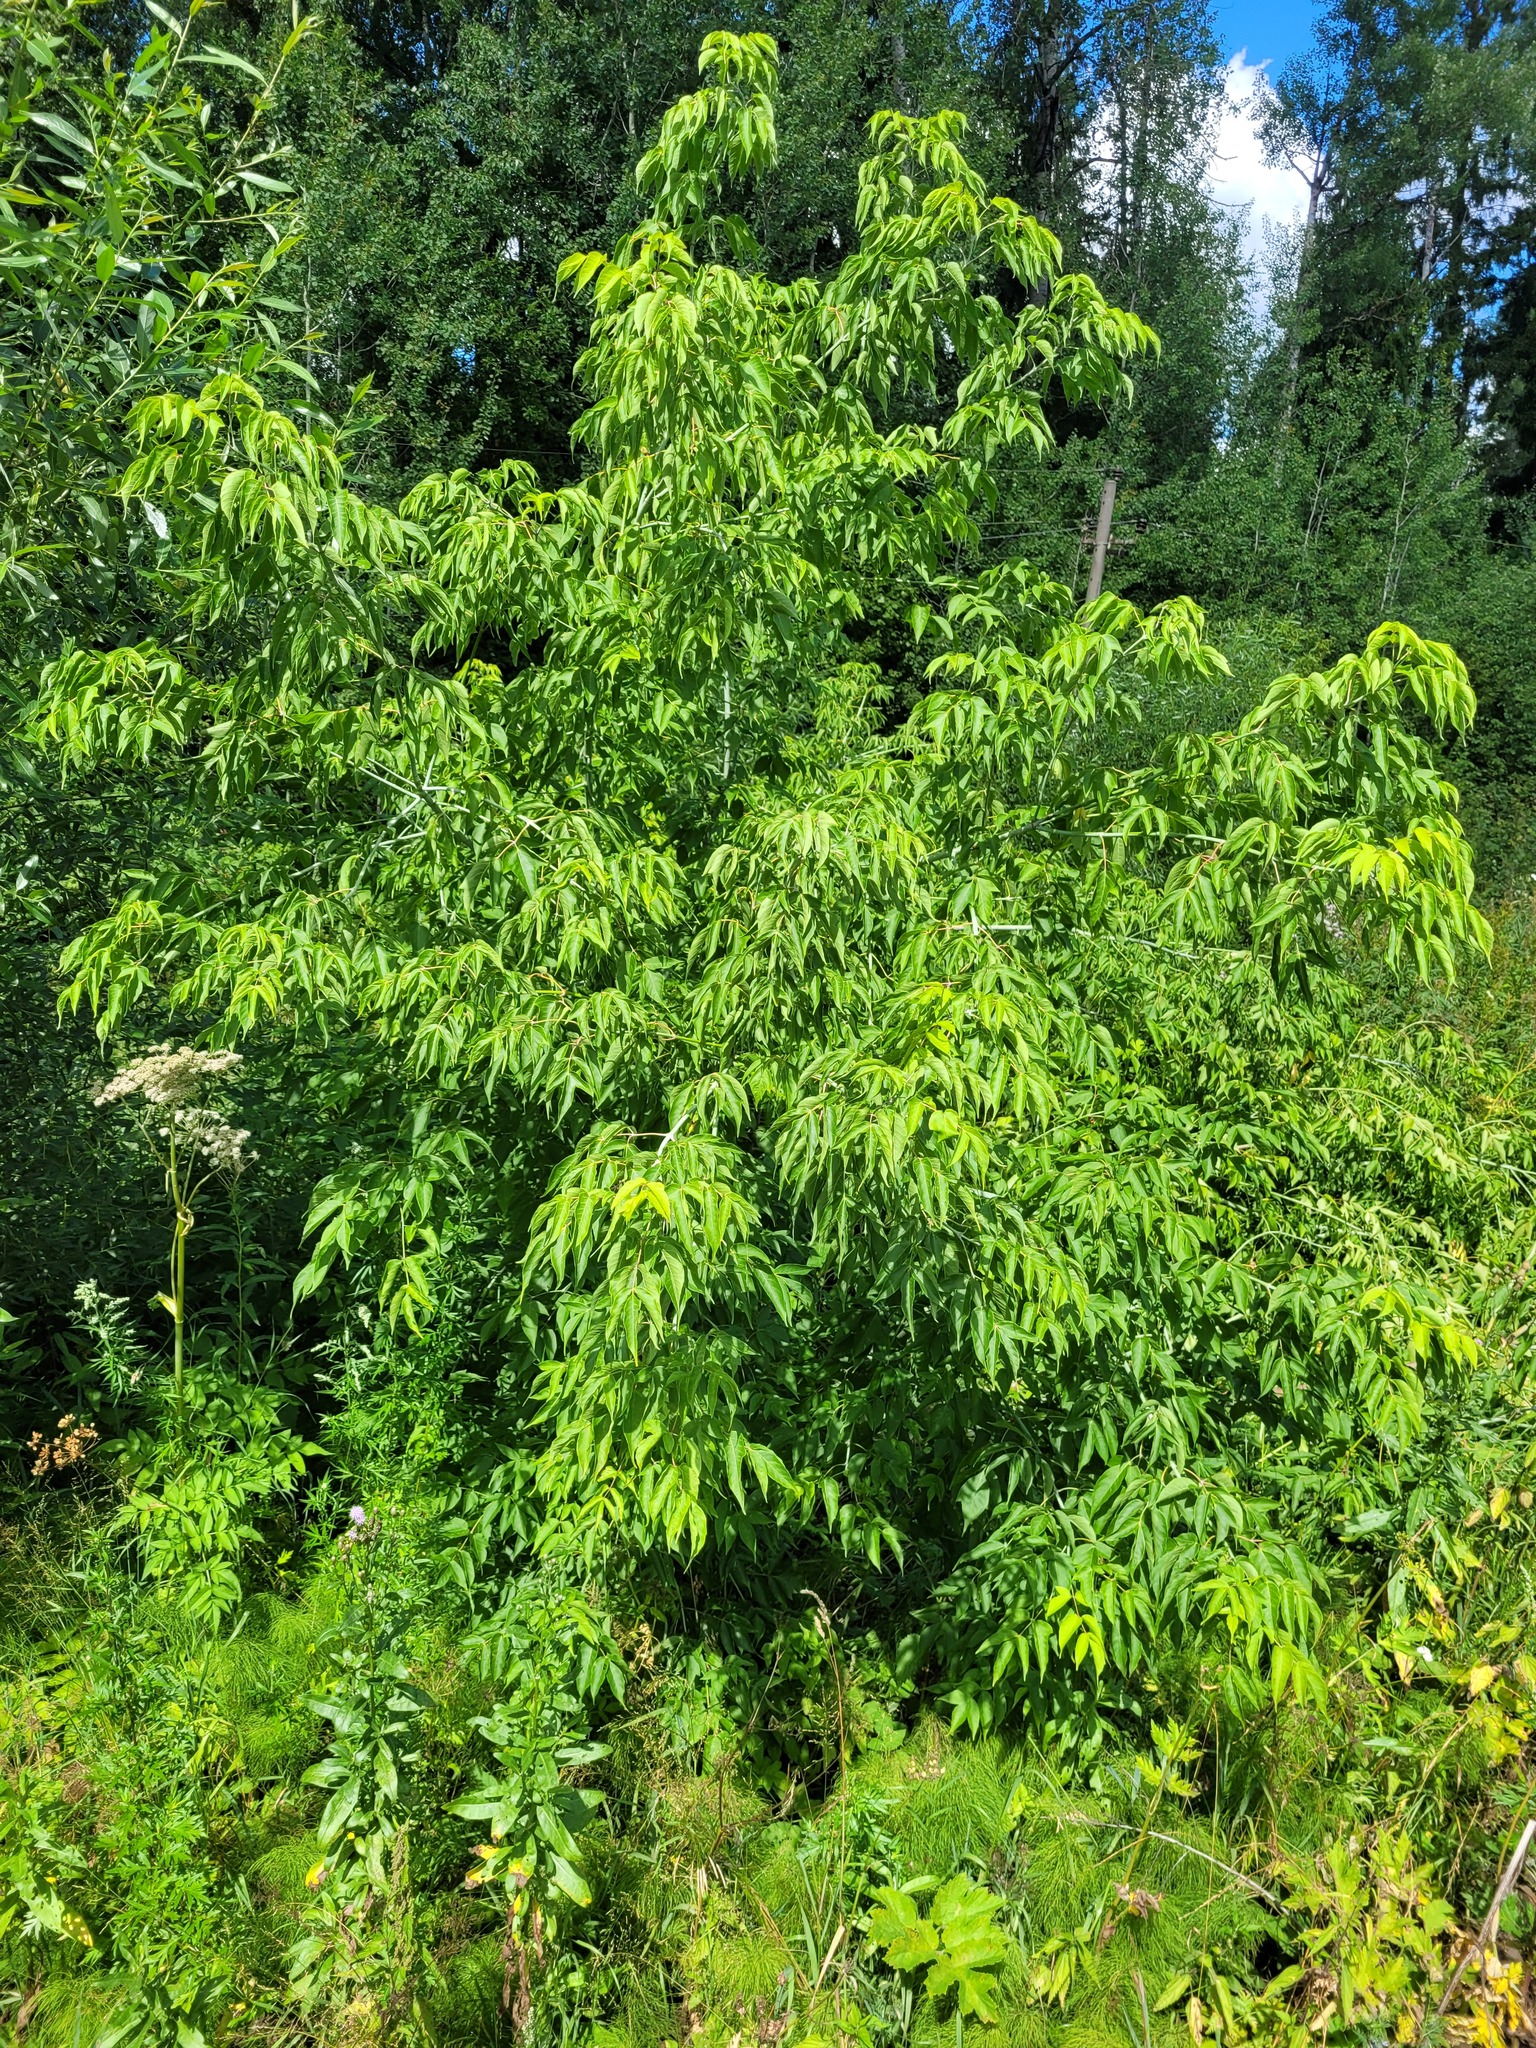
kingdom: Plantae
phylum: Tracheophyta
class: Magnoliopsida
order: Sapindales
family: Sapindaceae
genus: Acer
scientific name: Acer negundo
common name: Ashleaf maple
